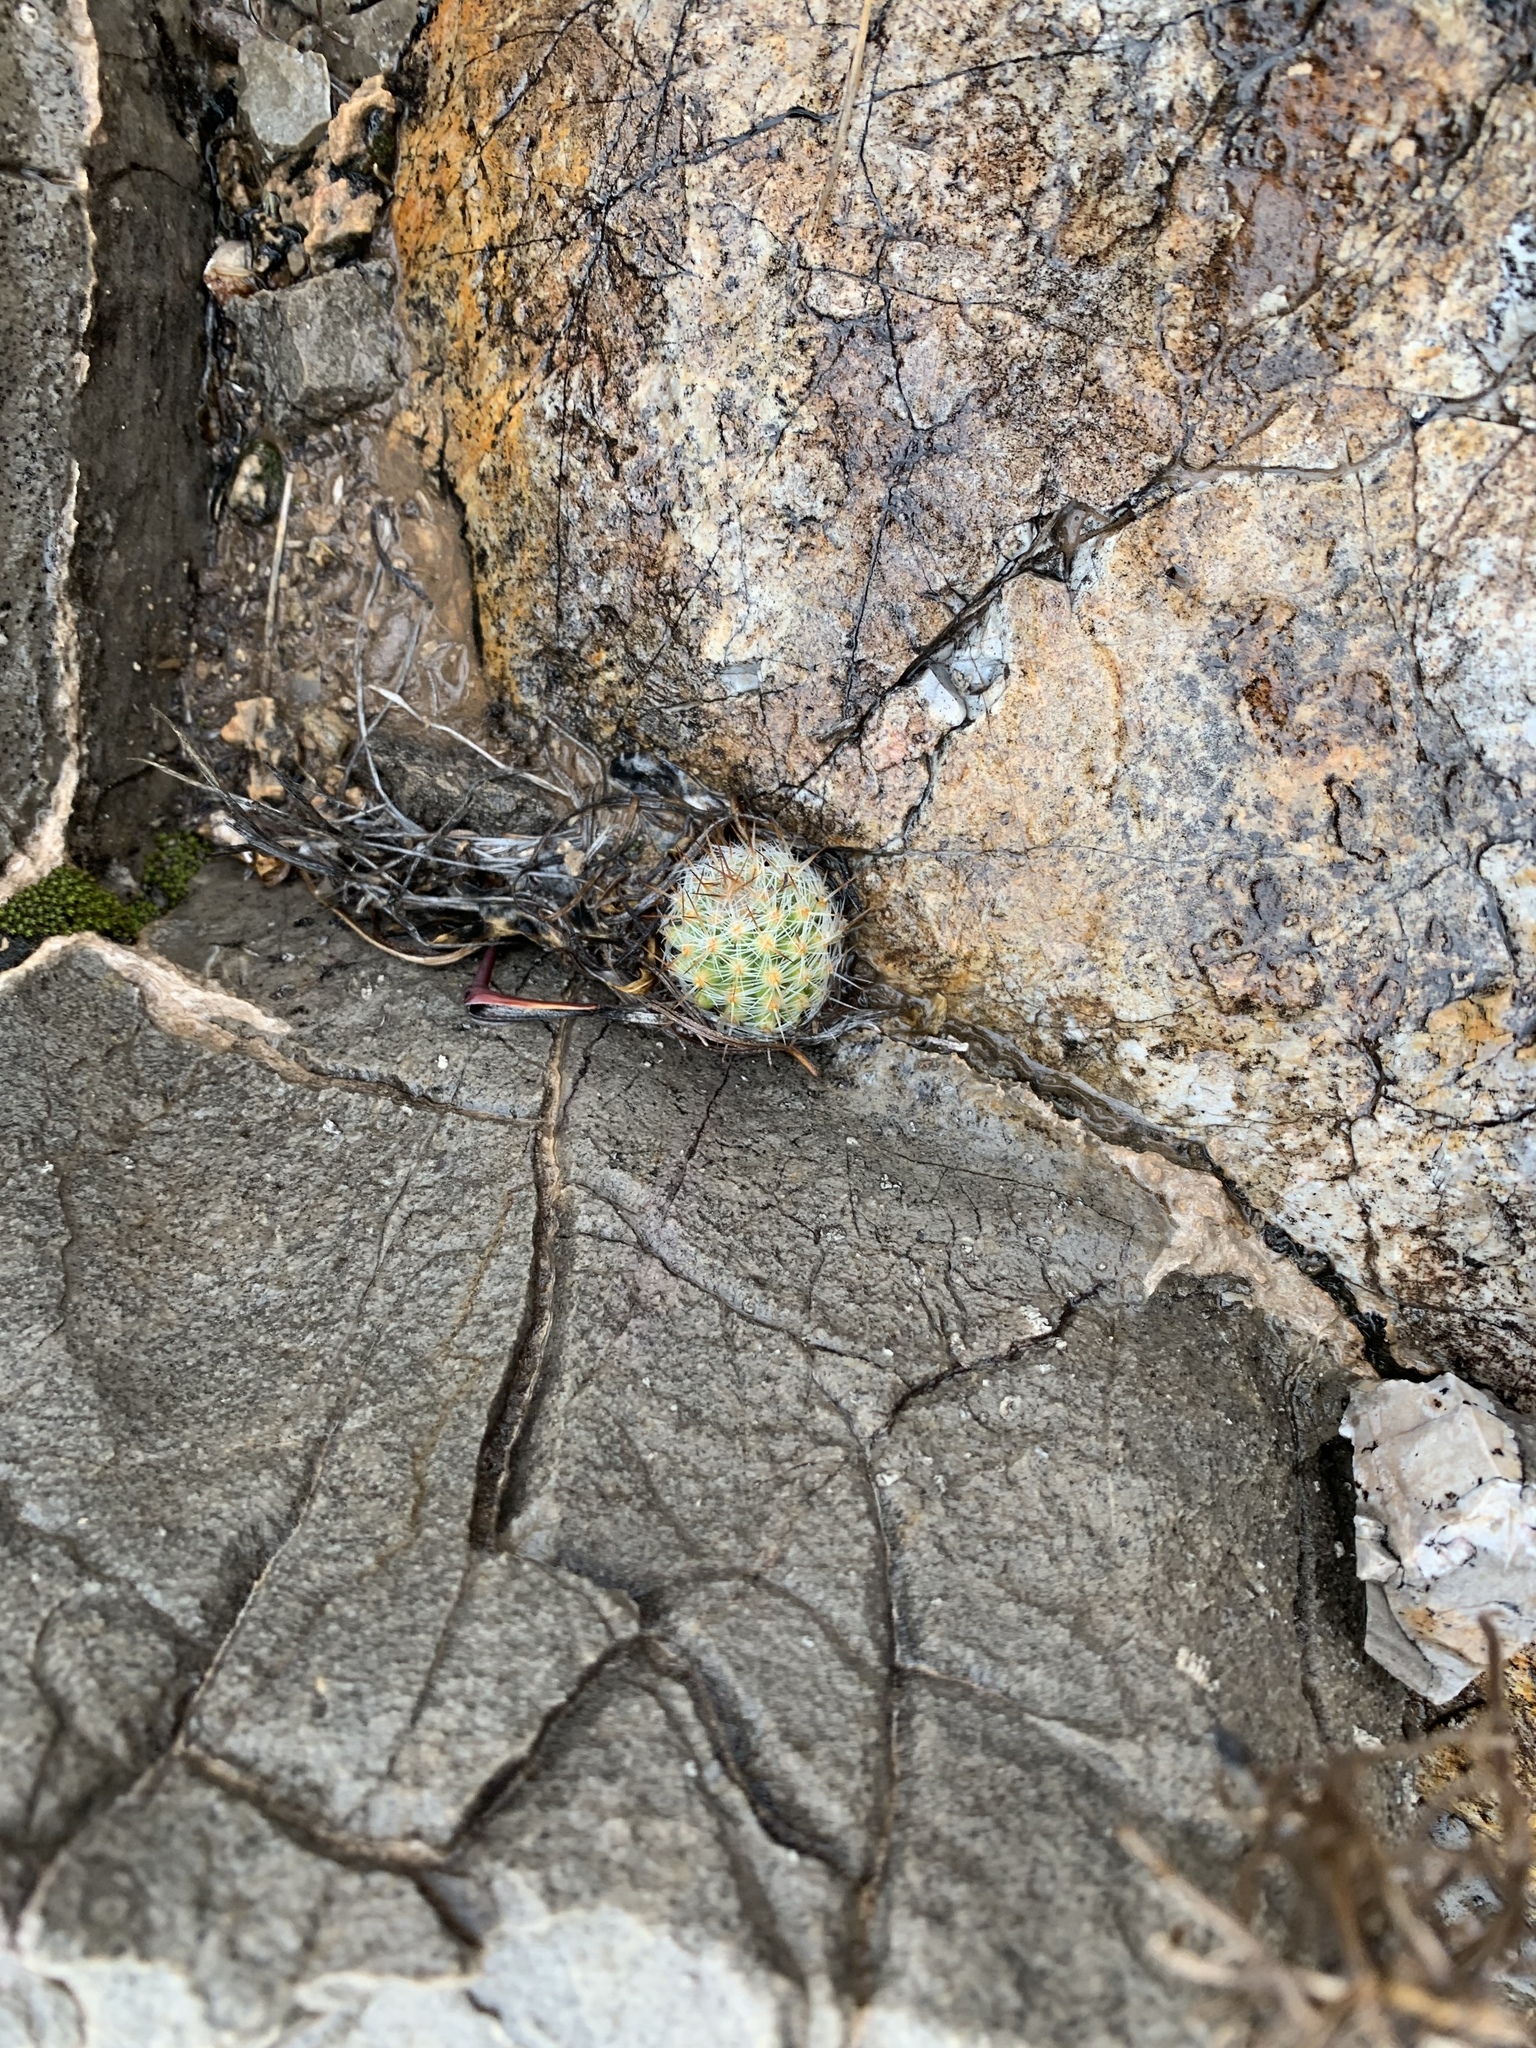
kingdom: Plantae
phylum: Tracheophyta
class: Magnoliopsida
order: Caryophyllales
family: Cactaceae
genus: Pelecyphora
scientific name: Pelecyphora tuberculosa
